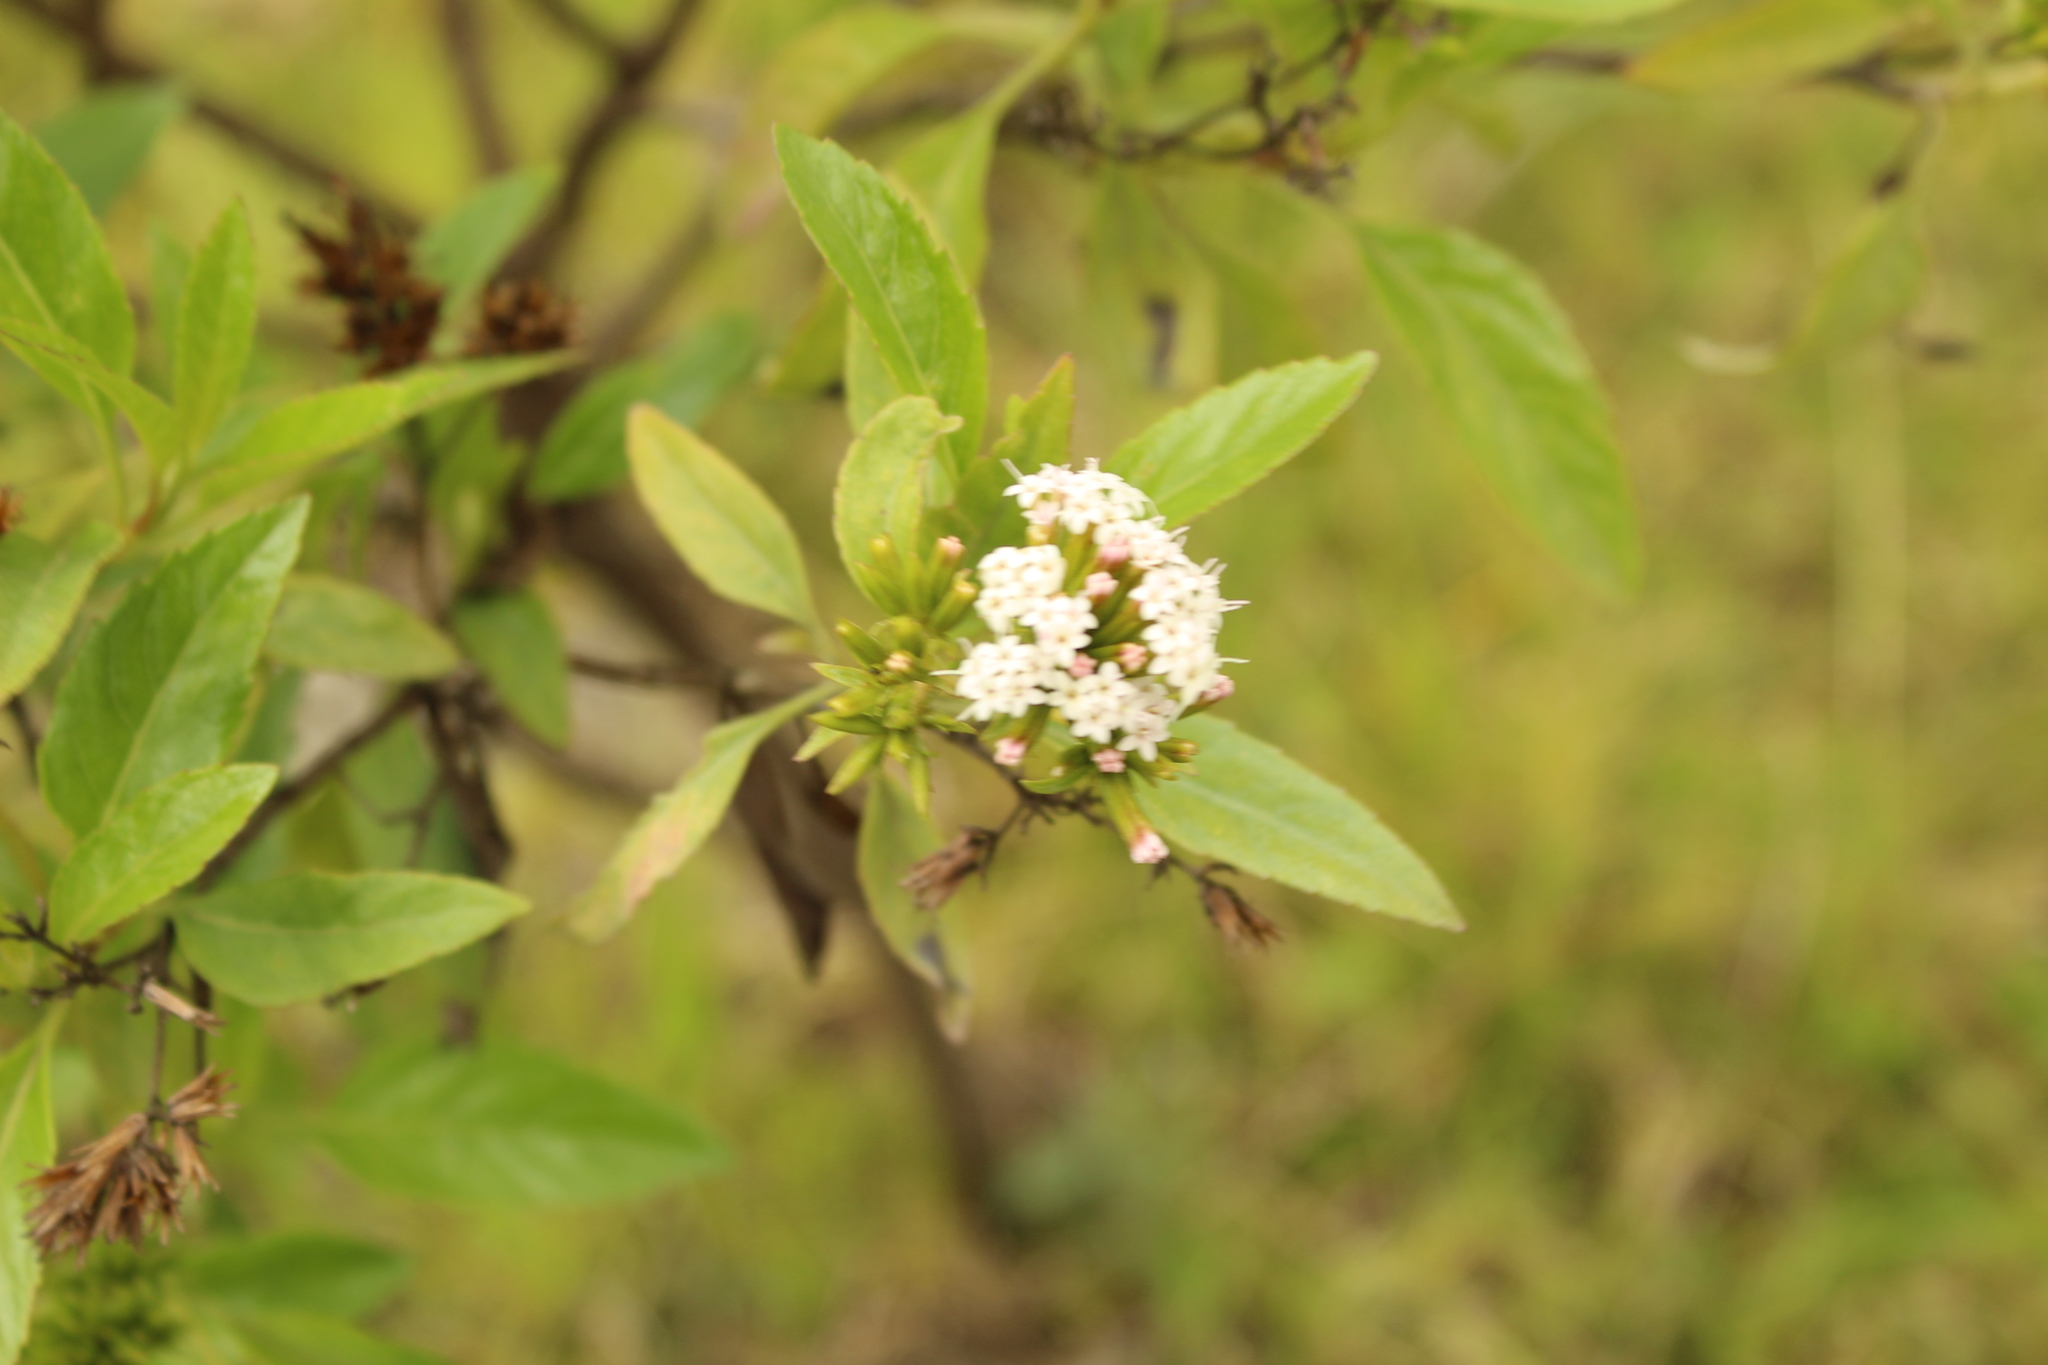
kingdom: Plantae
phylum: Tracheophyta
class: Magnoliopsida
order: Asterales
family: Asteraceae
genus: Stevia
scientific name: Stevia lucida
